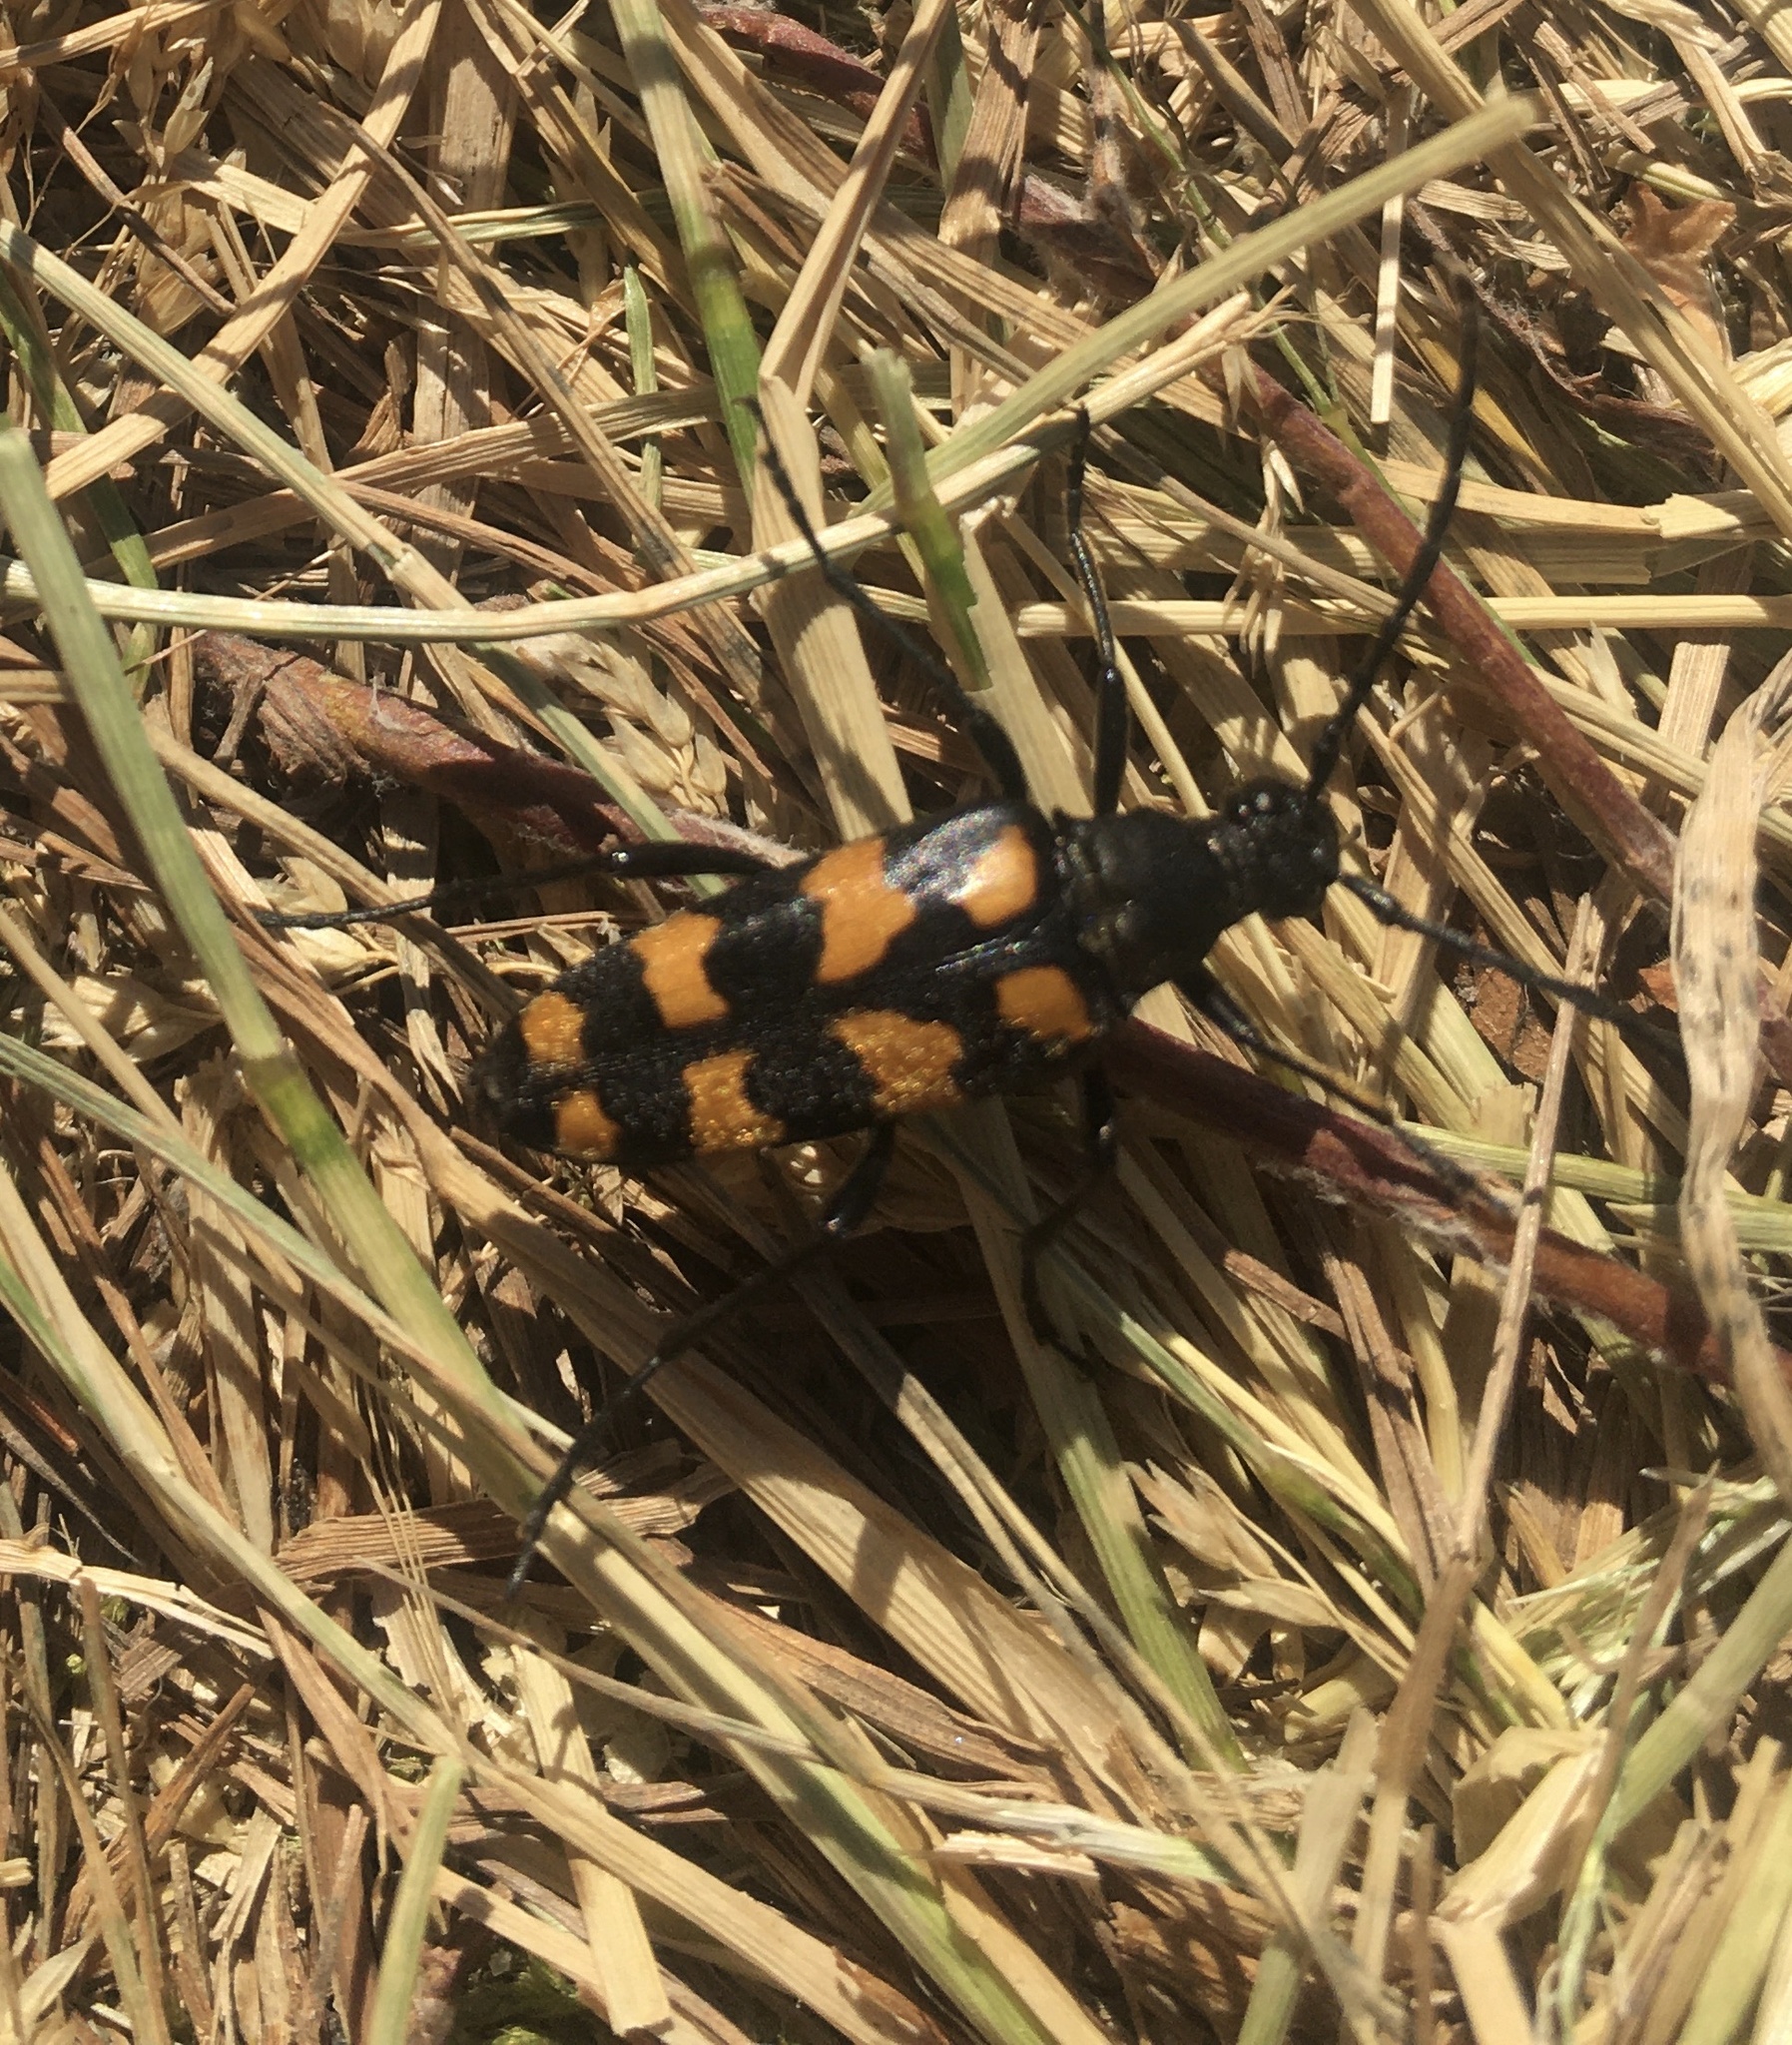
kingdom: Animalia
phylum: Arthropoda
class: Insecta
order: Coleoptera
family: Cerambycidae
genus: Leptura
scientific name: Leptura quadrifasciata
